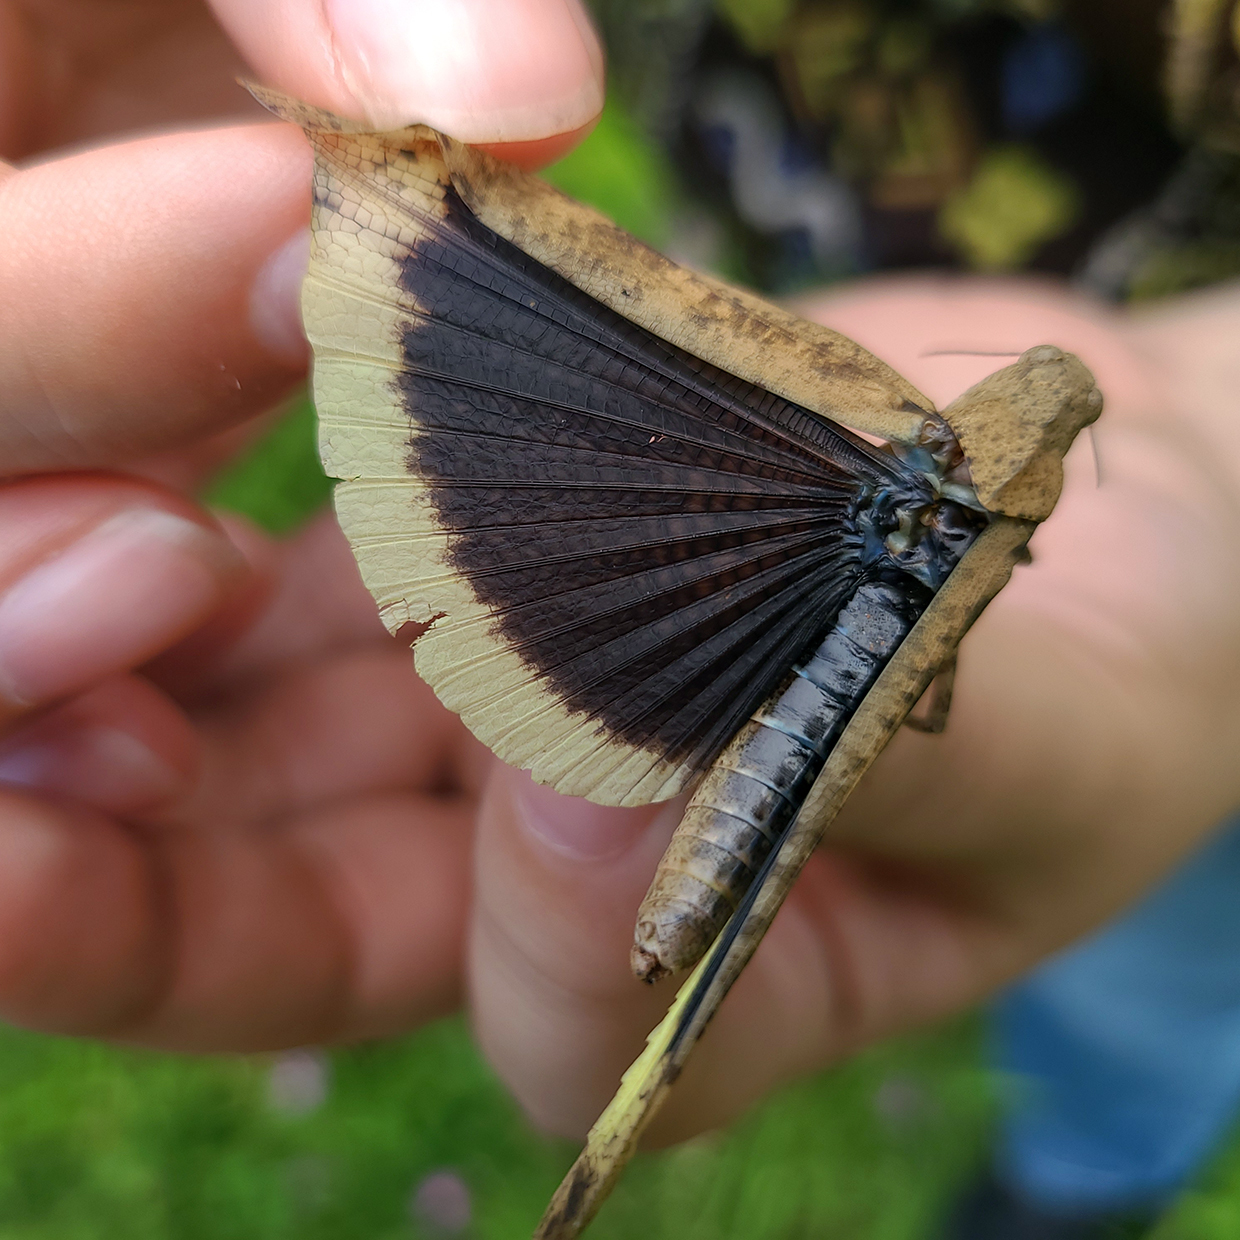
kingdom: Animalia
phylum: Arthropoda
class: Insecta
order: Orthoptera
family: Acrididae
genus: Dissosteira
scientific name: Dissosteira carolina
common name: Carolina grasshopper
